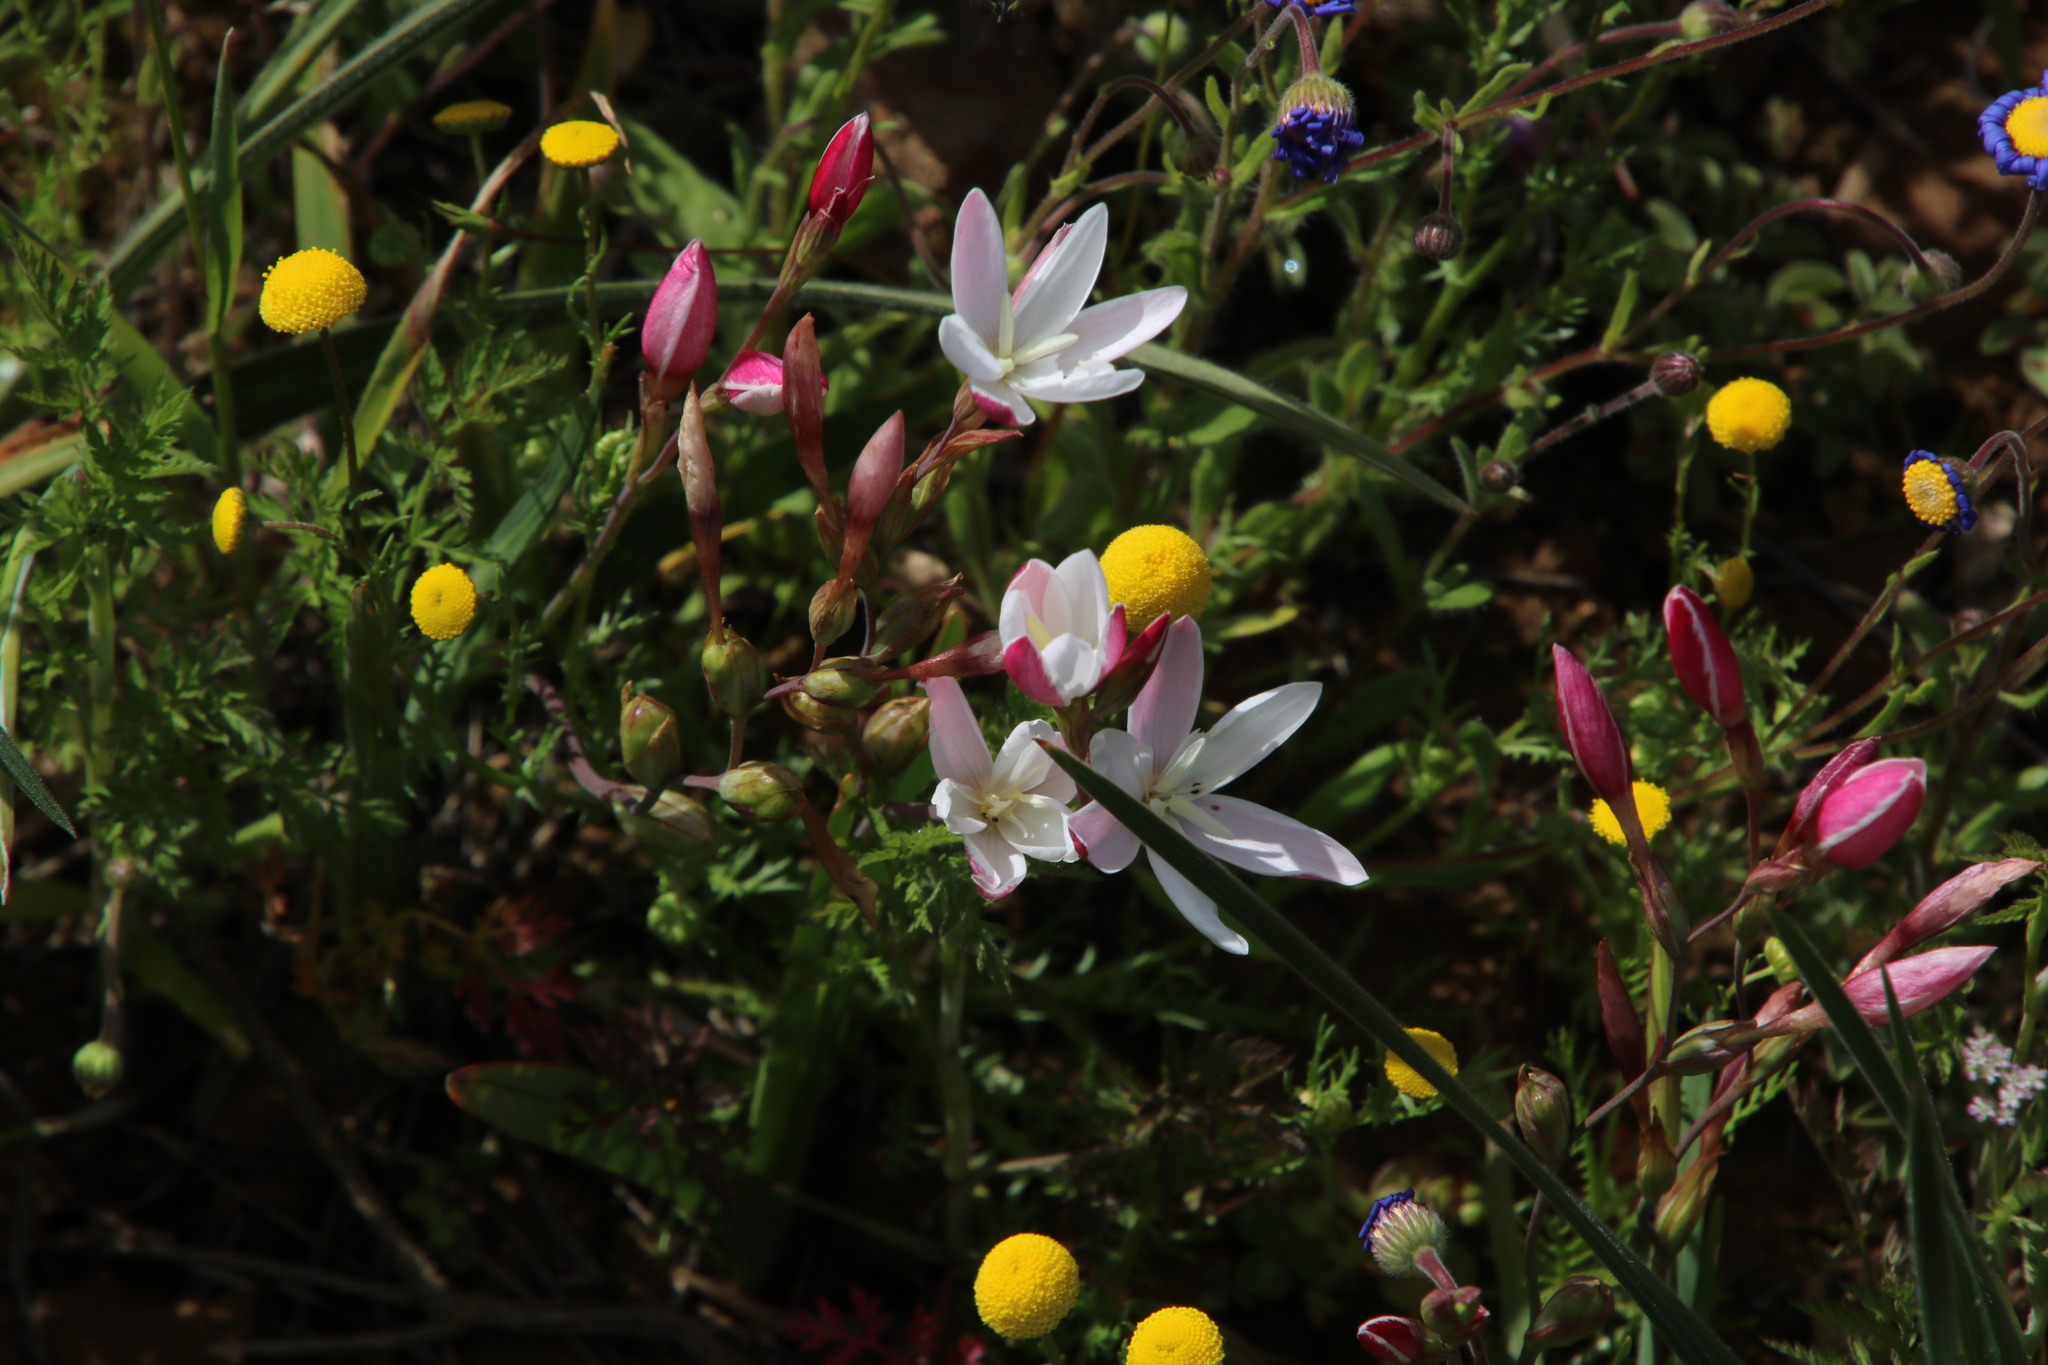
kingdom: Plantae
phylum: Tracheophyta
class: Liliopsida
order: Asparagales
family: Iridaceae
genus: Hesperantha
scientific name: Hesperantha cucullata
